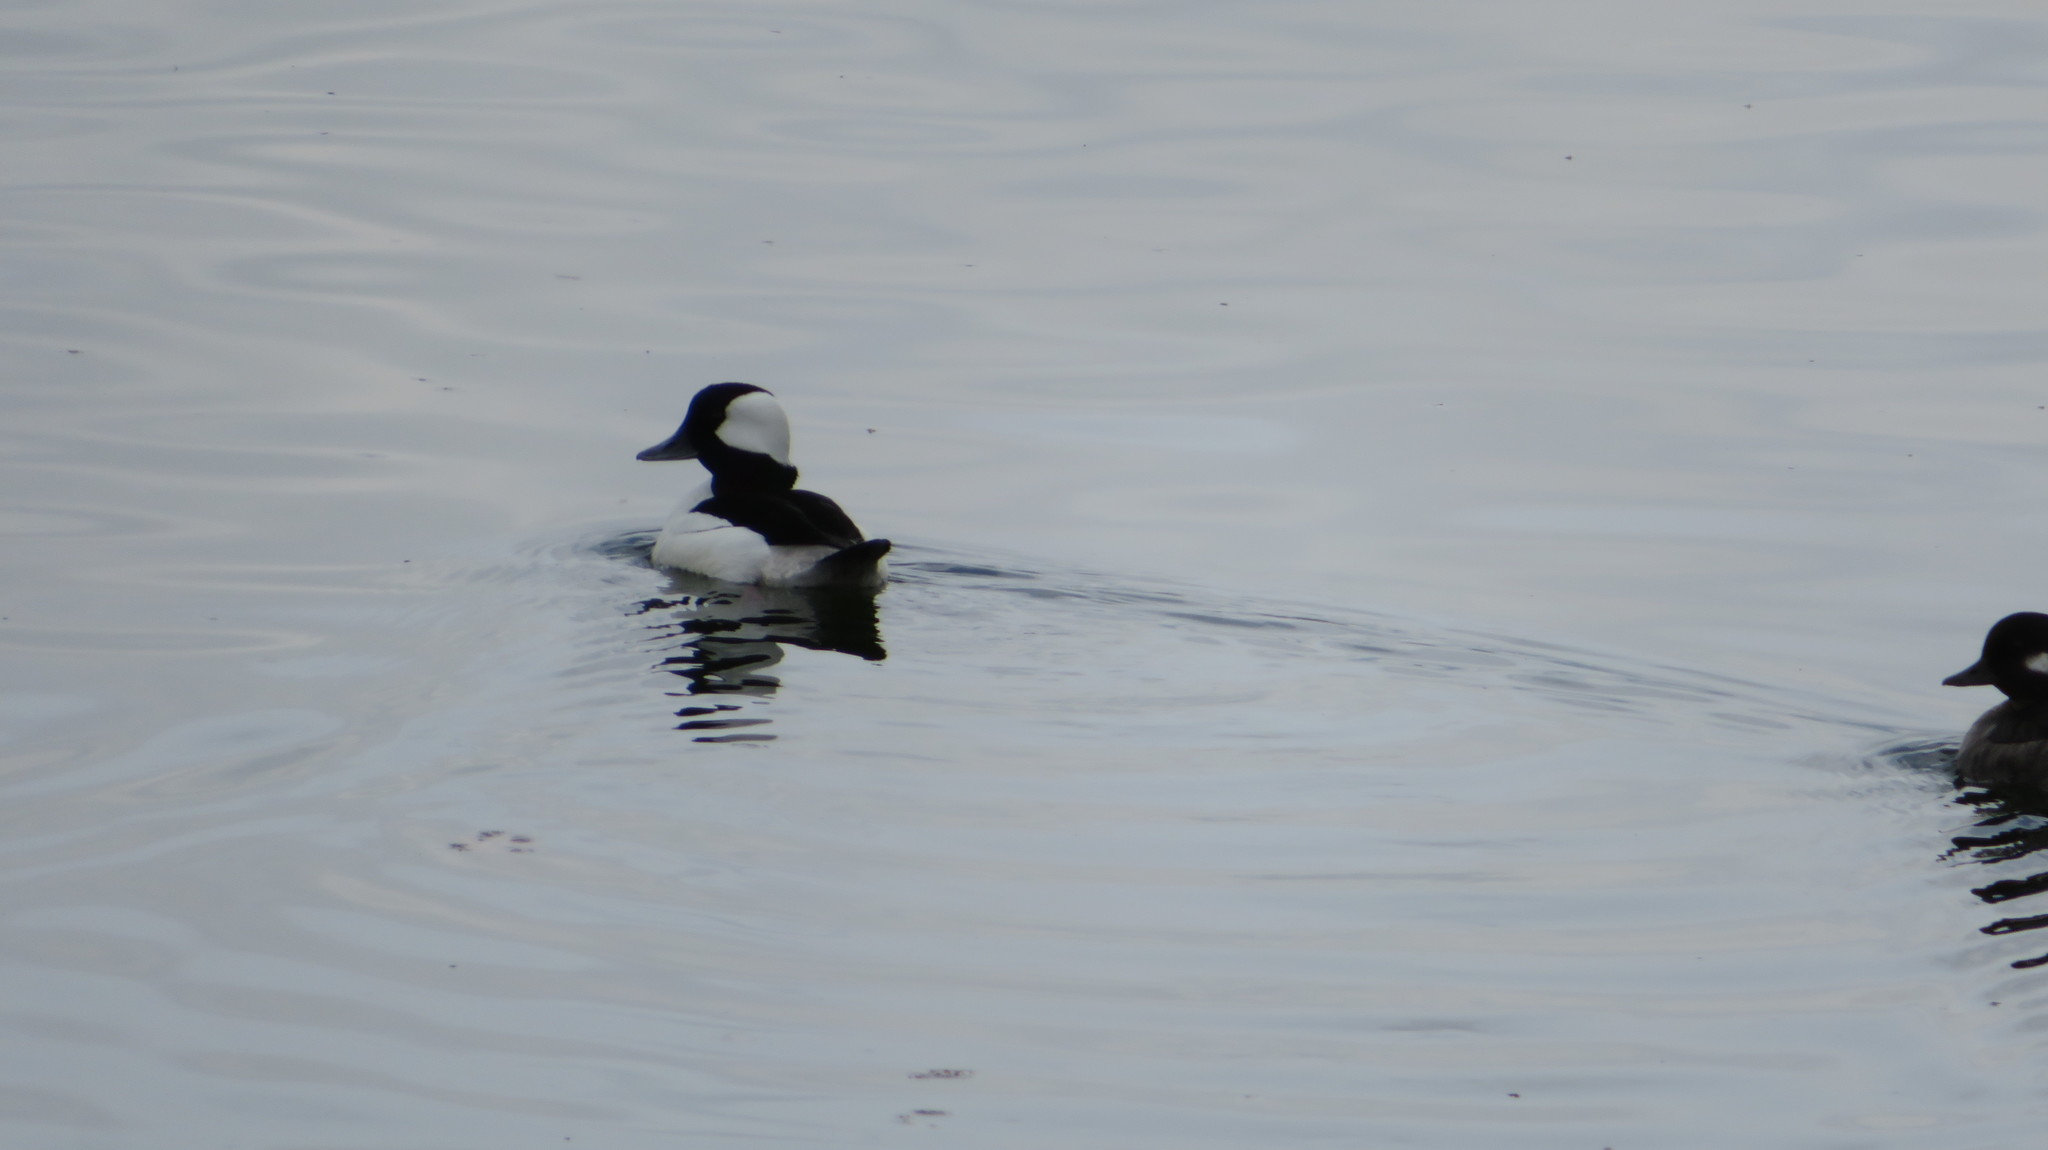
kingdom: Animalia
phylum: Chordata
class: Aves
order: Anseriformes
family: Anatidae
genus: Bucephala
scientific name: Bucephala albeola
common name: Bufflehead
